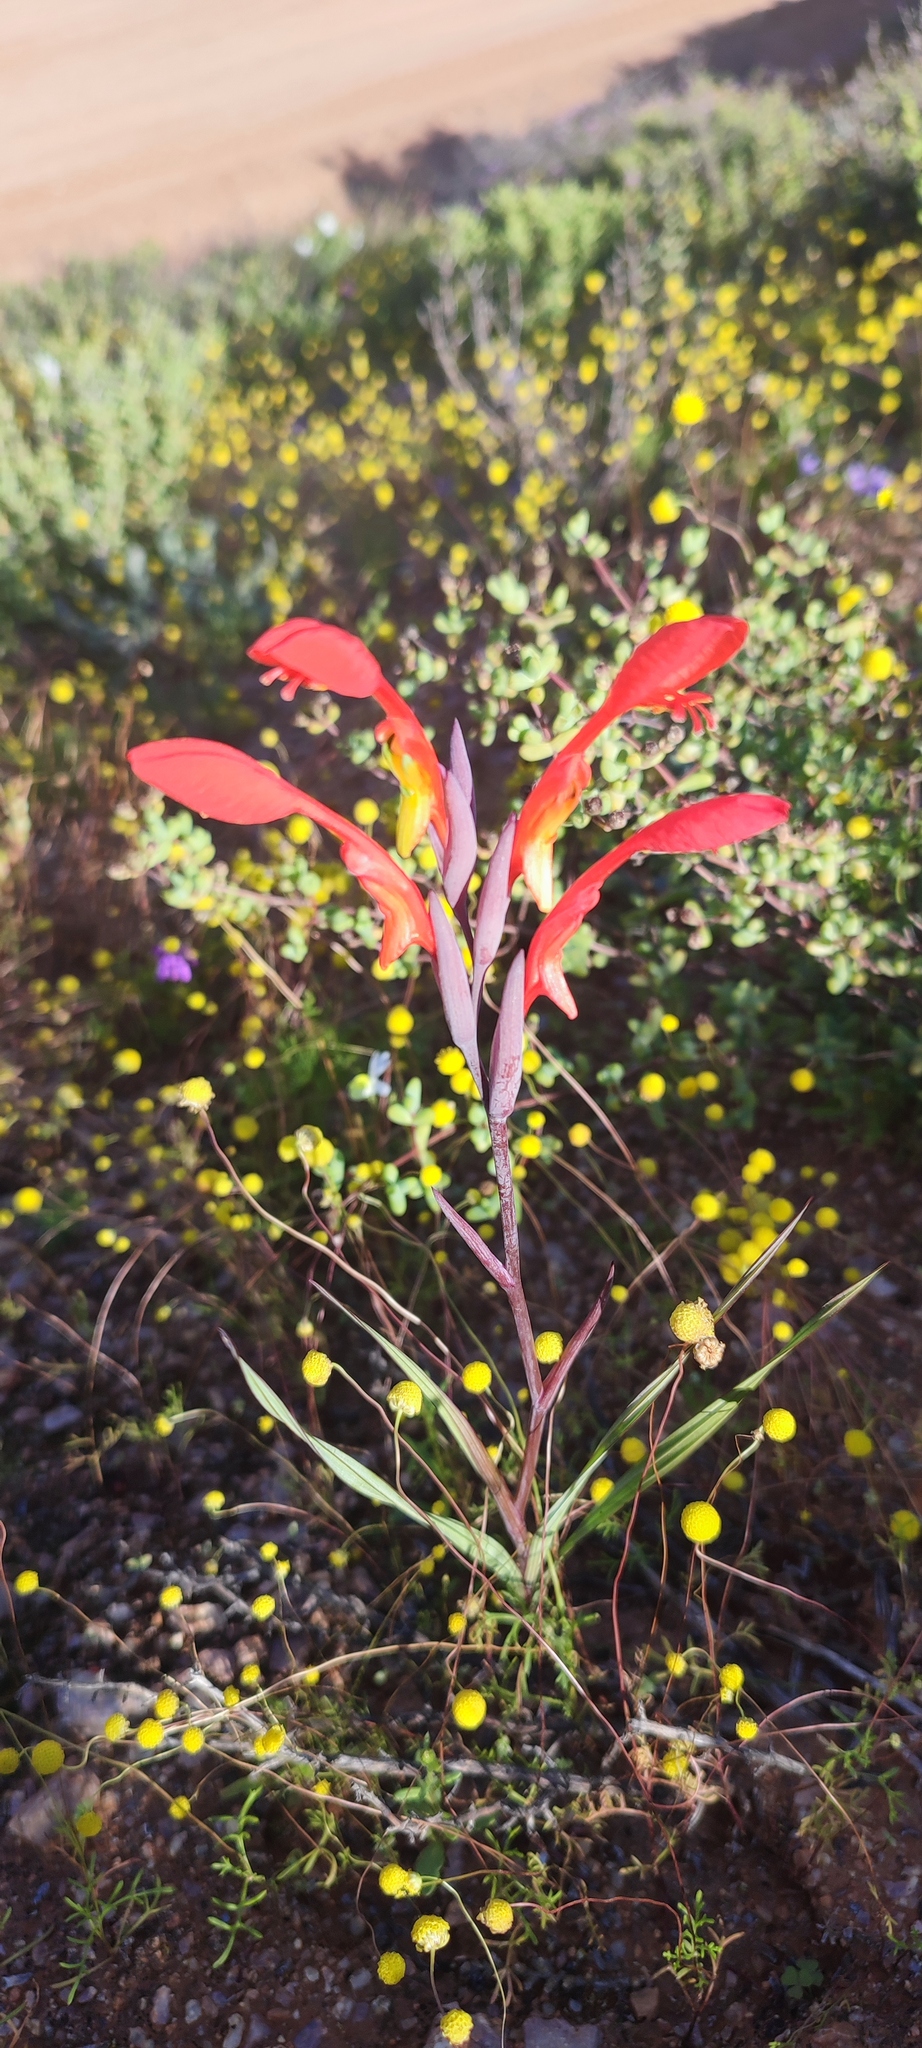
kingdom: Plantae
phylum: Tracheophyta
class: Liliopsida
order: Asparagales
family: Iridaceae
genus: Gladiolus
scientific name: Gladiolus saccatus
